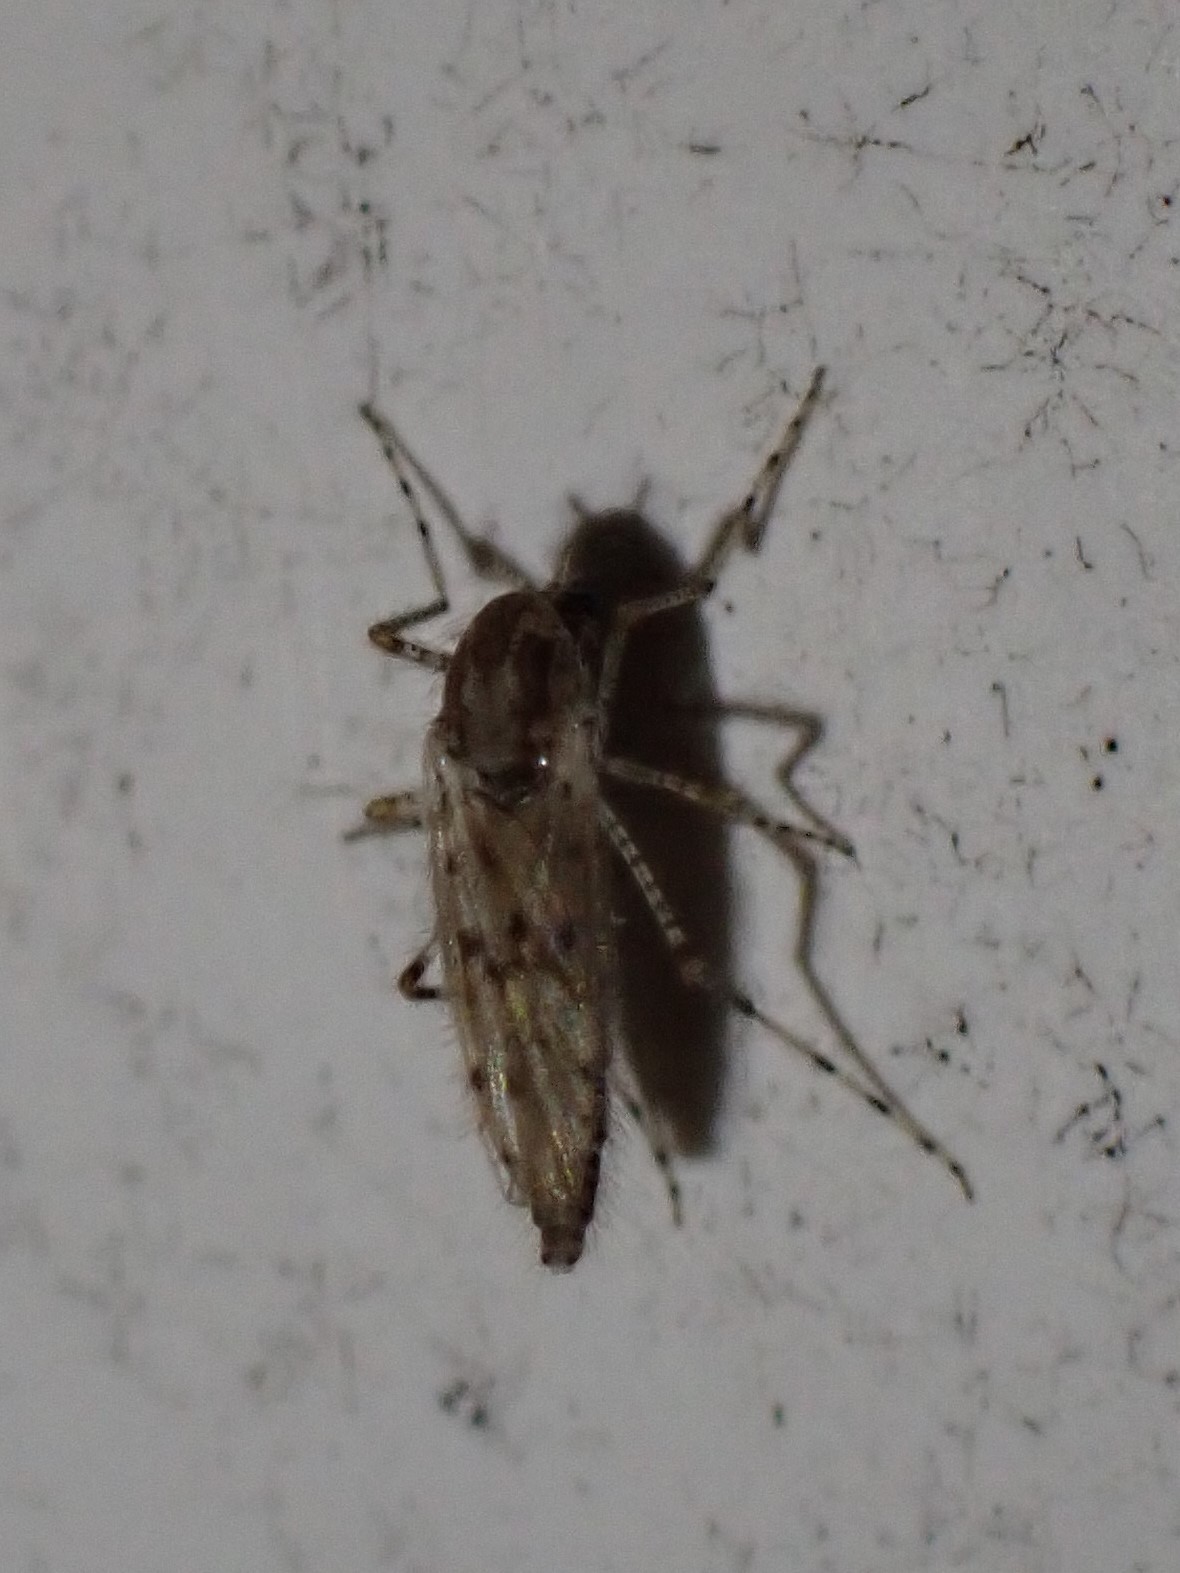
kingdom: Animalia
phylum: Arthropoda
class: Insecta
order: Diptera
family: Chaoboridae
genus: Chaoborus
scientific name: Chaoborus punctipennis
